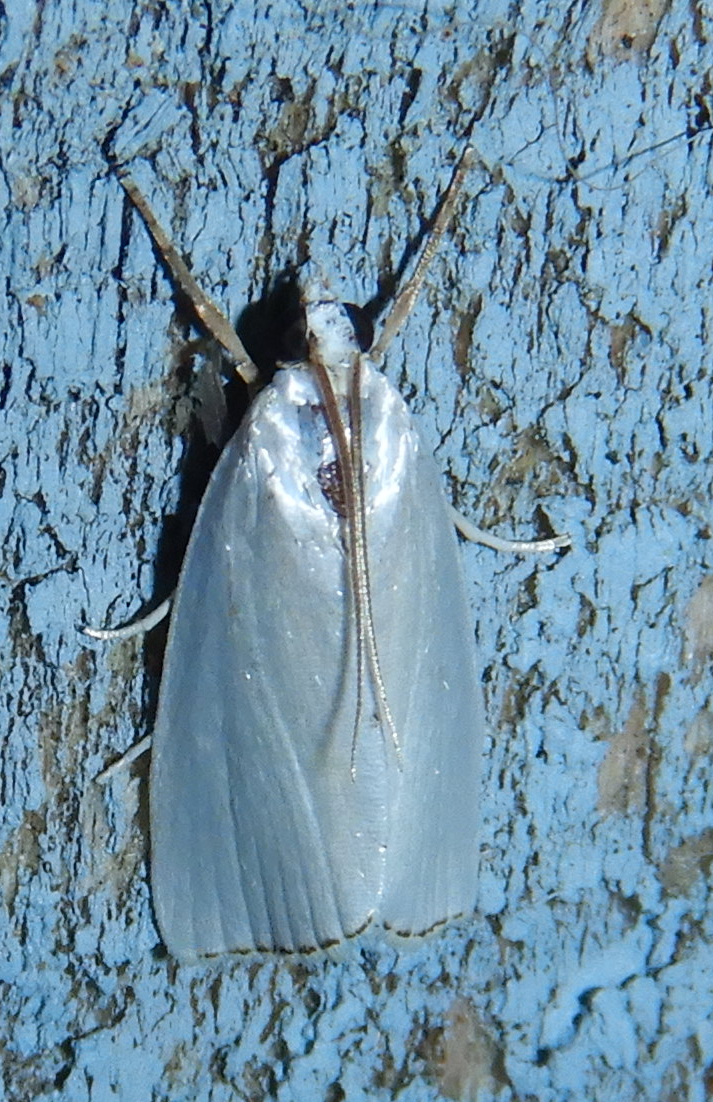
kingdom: Animalia
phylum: Arthropoda
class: Insecta
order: Lepidoptera
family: Crambidae
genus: Argyria
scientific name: Argyria nivalis
